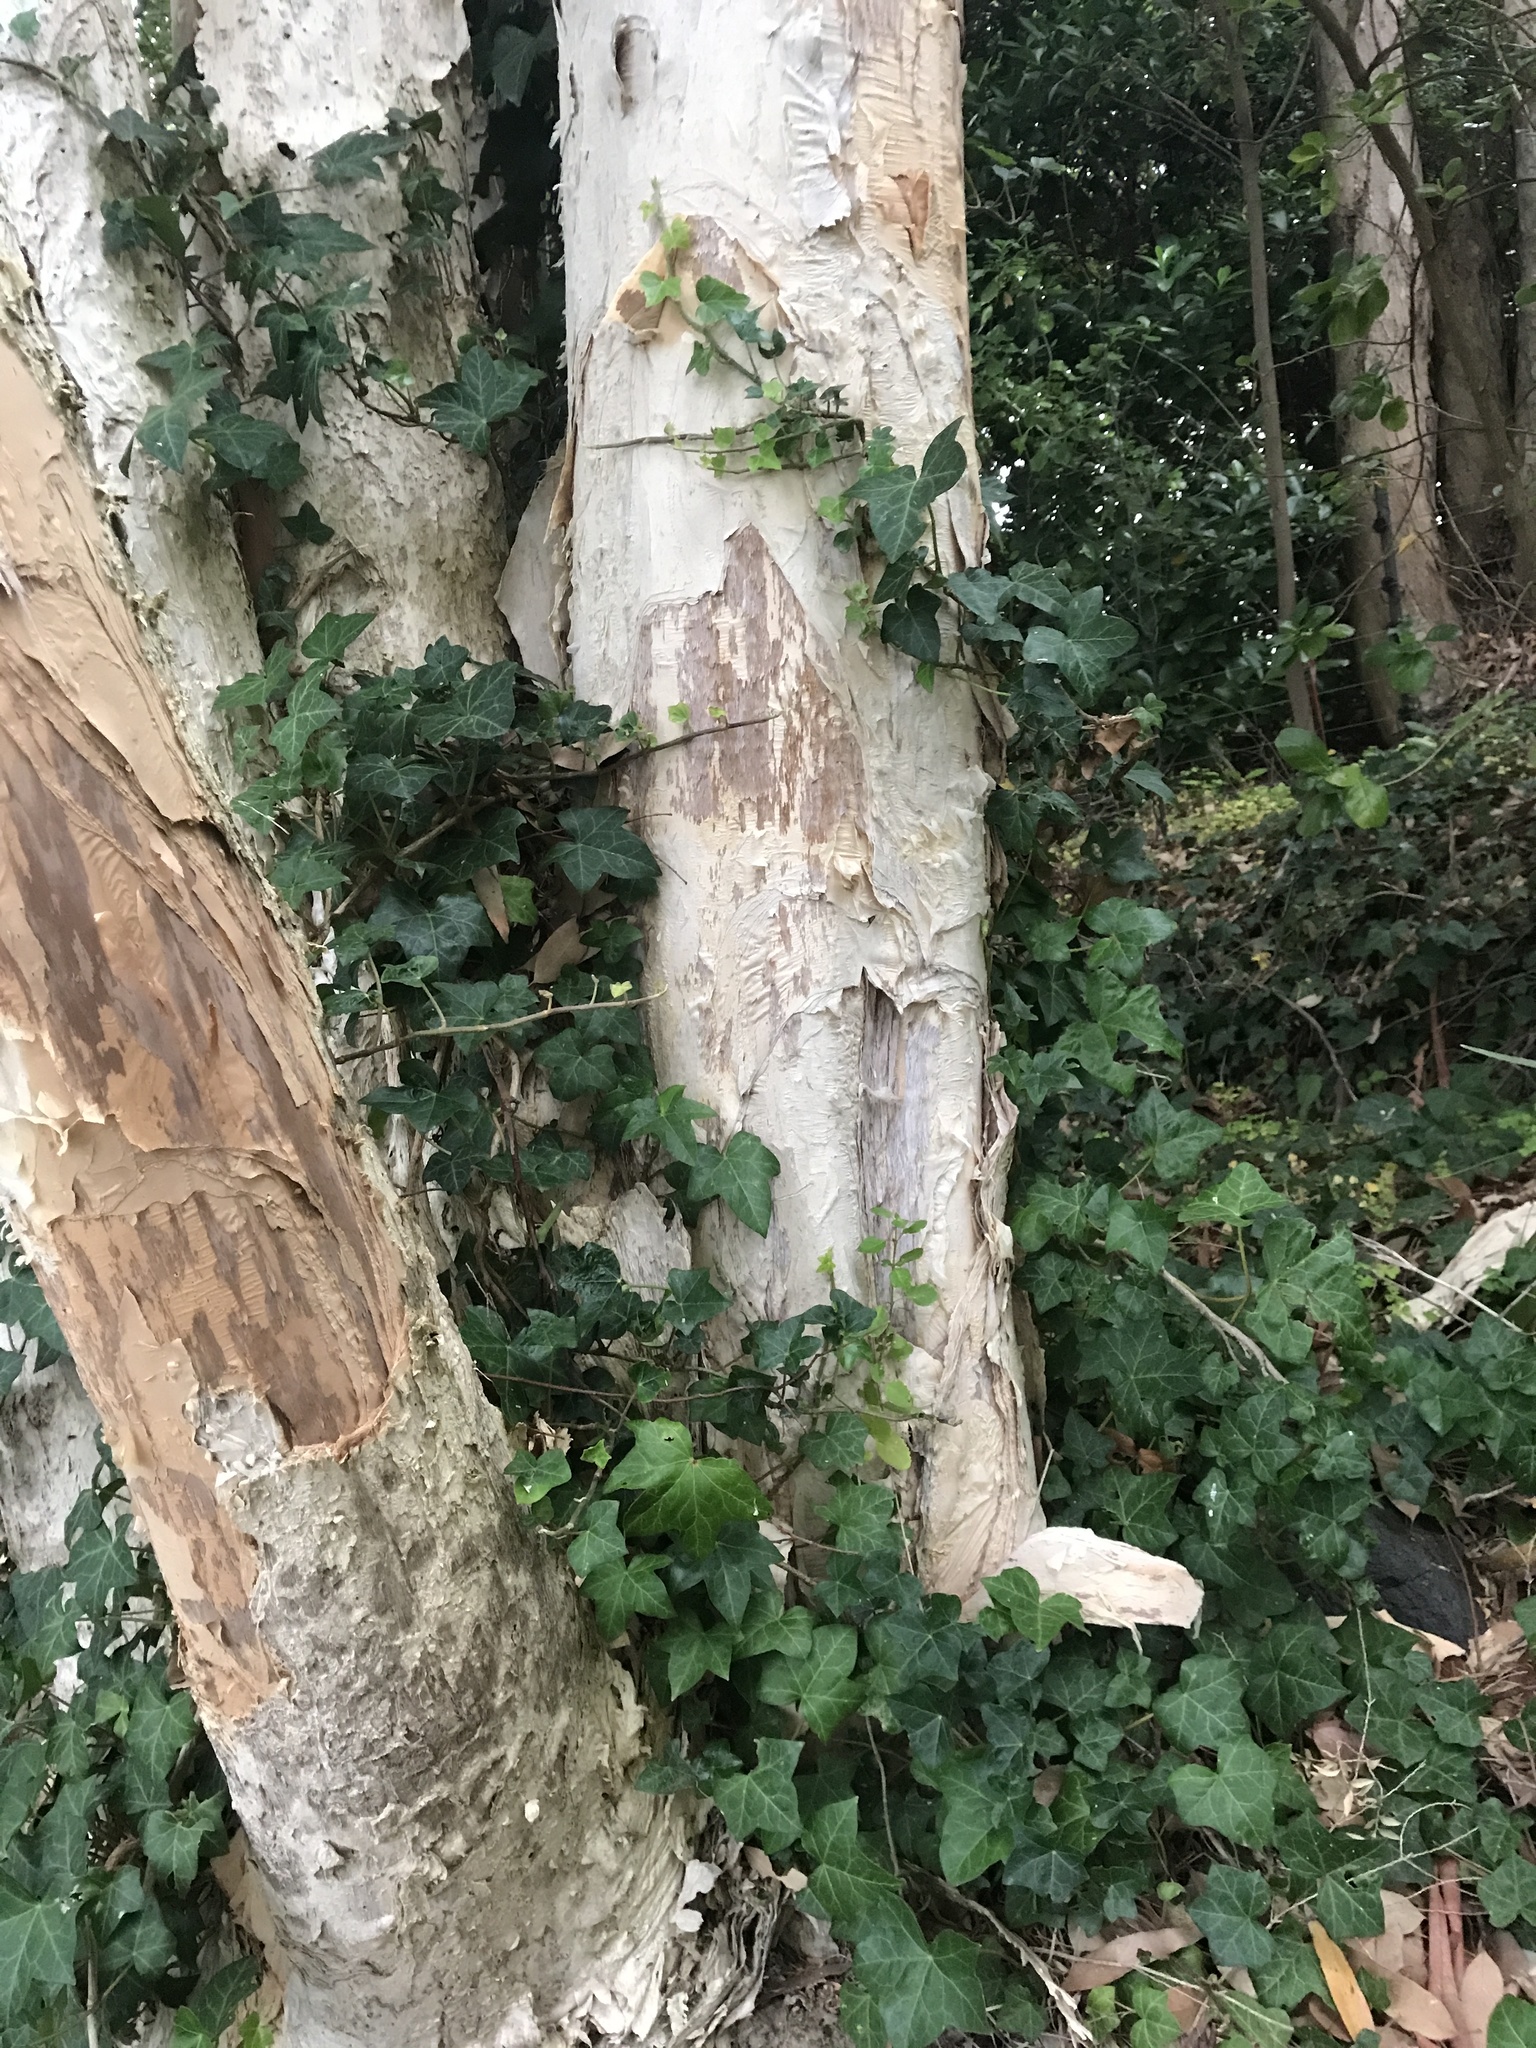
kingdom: Plantae
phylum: Tracheophyta
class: Magnoliopsida
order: Apiales
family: Araliaceae
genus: Hedera
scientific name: Hedera helix
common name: Ivy
